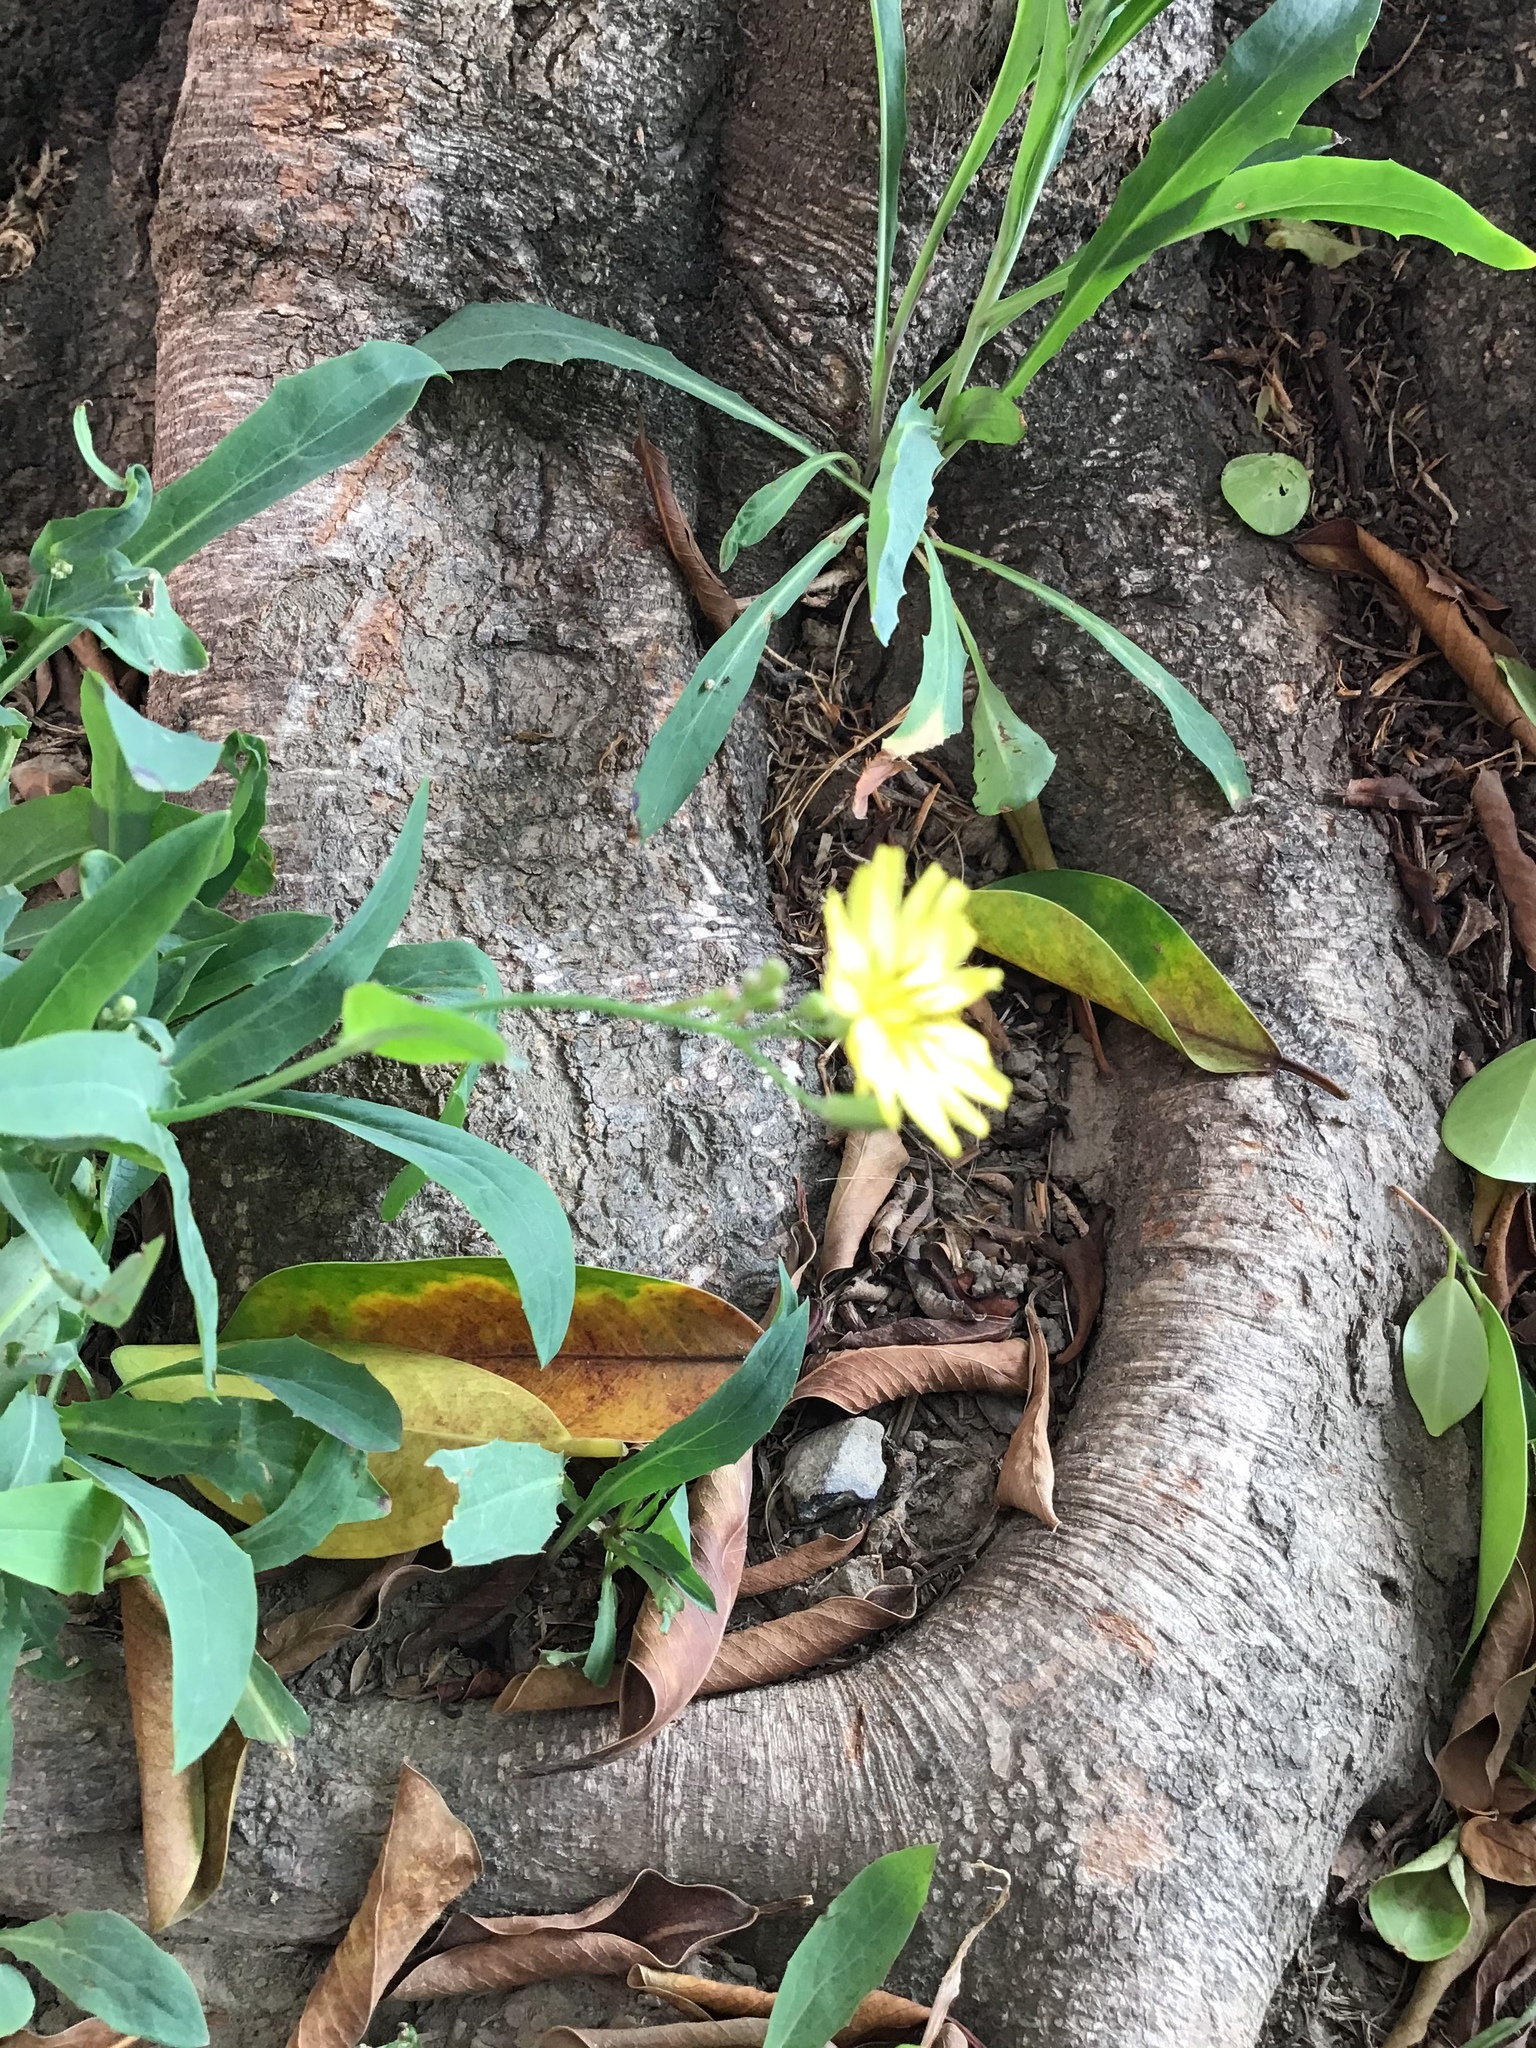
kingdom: Plantae
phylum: Tracheophyta
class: Magnoliopsida
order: Asterales
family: Asteraceae
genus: Ixeris
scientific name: Ixeris chinensis
